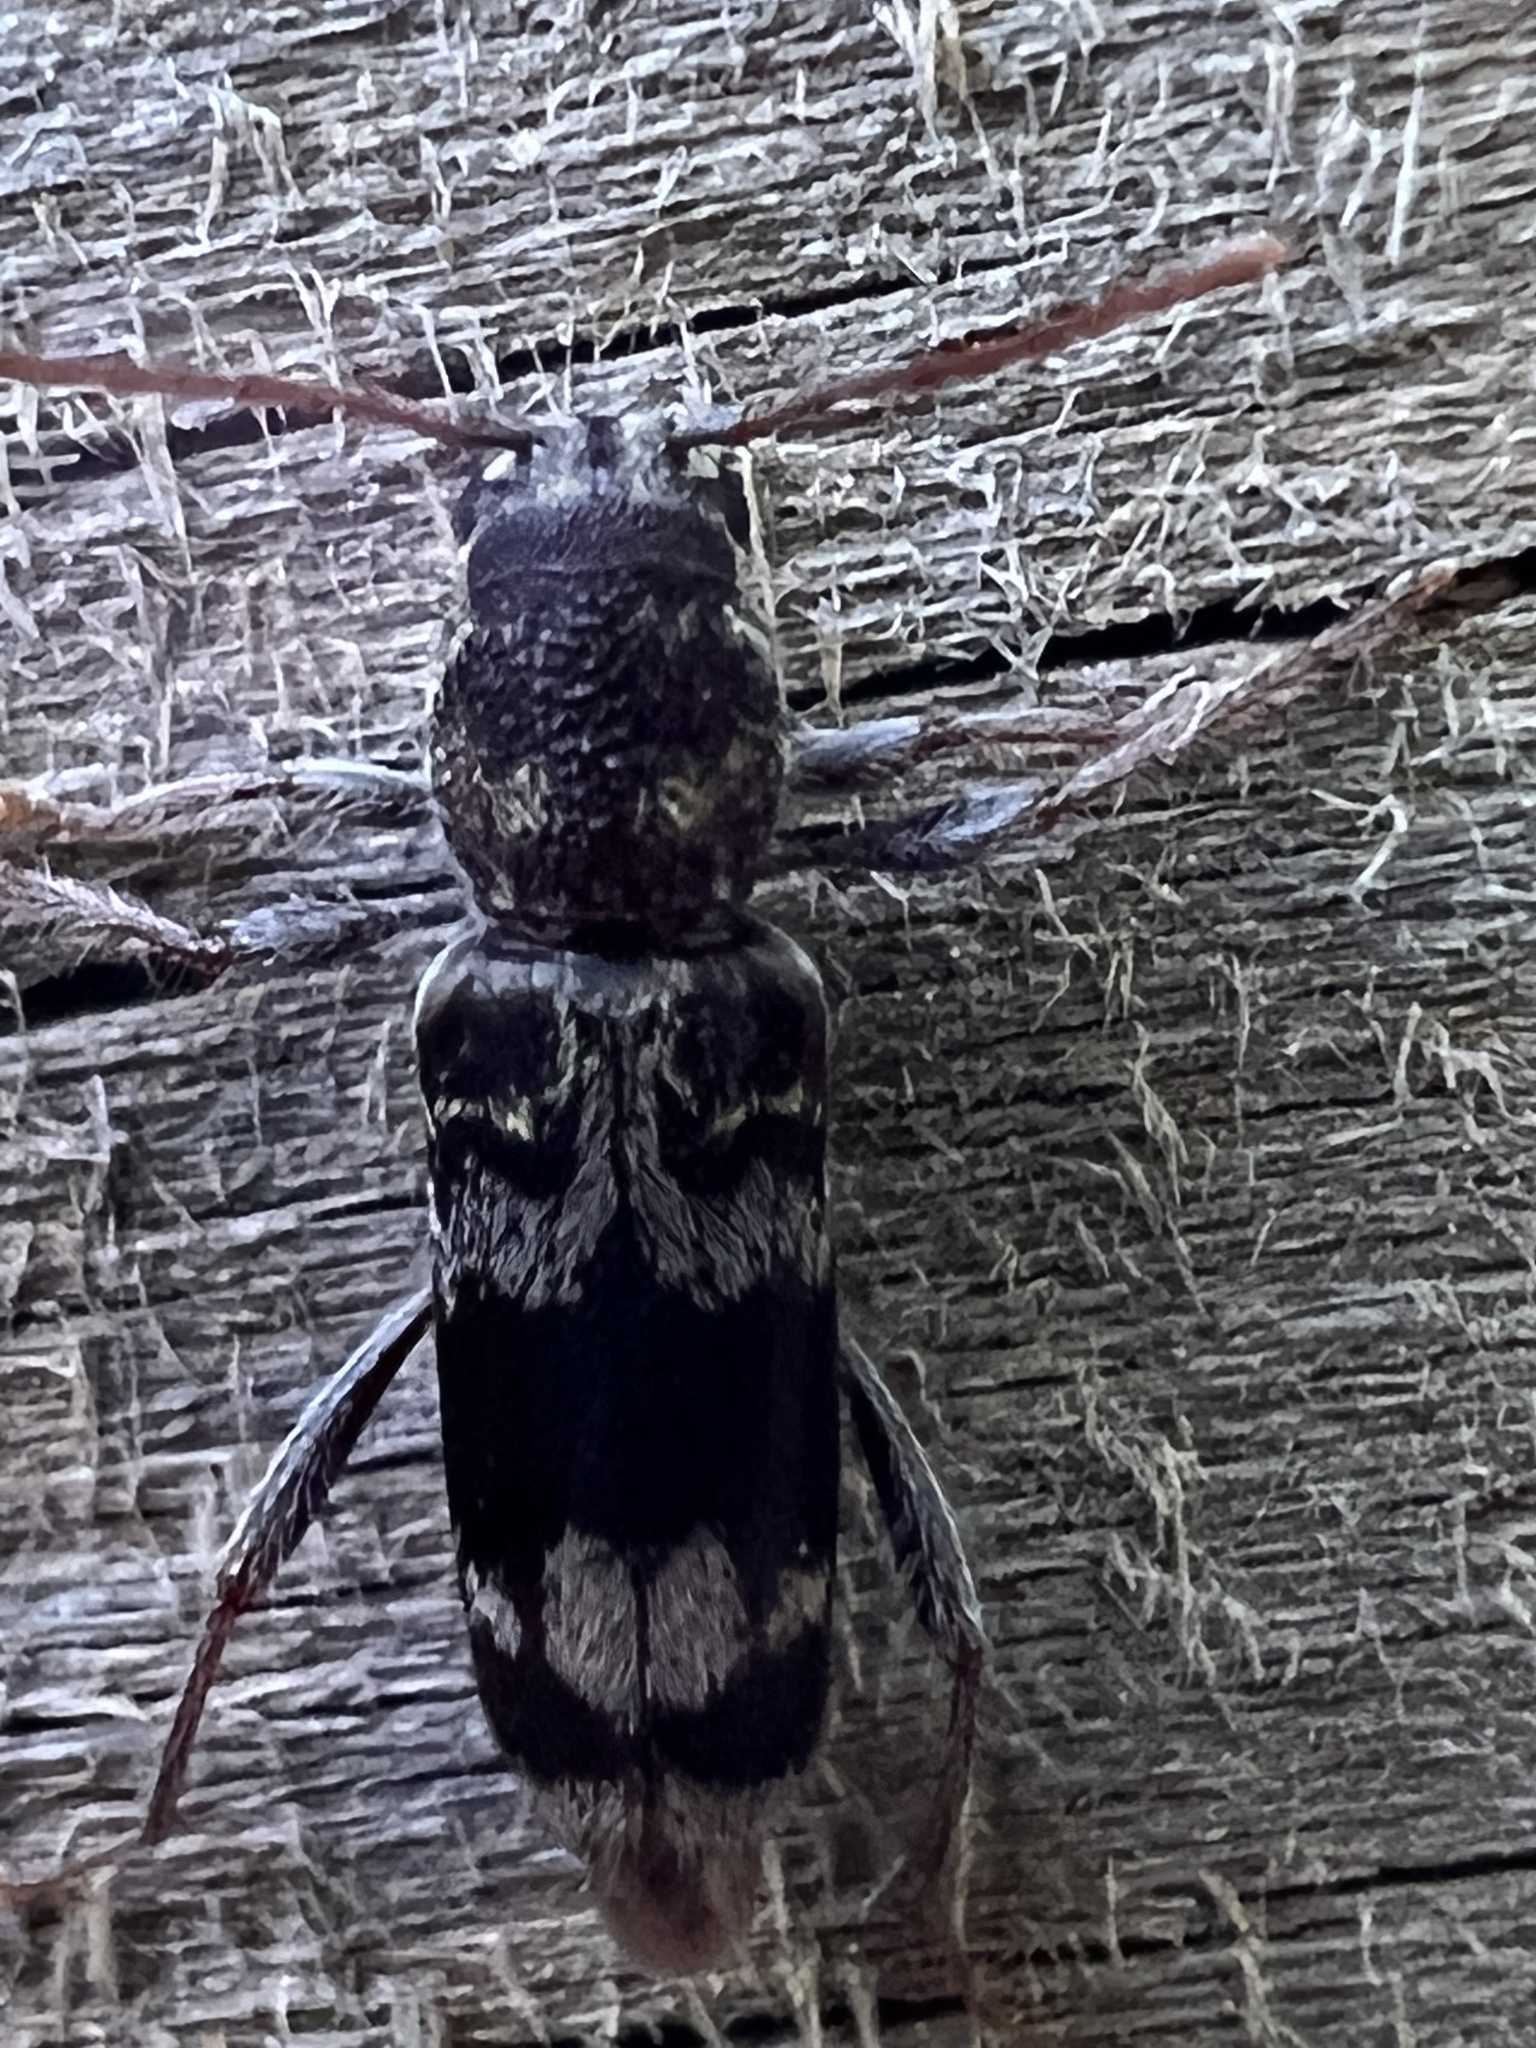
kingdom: Animalia
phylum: Arthropoda
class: Insecta
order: Coleoptera
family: Cerambycidae
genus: Xylotrechus
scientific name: Xylotrechus colonus
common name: Long-horned beetle
